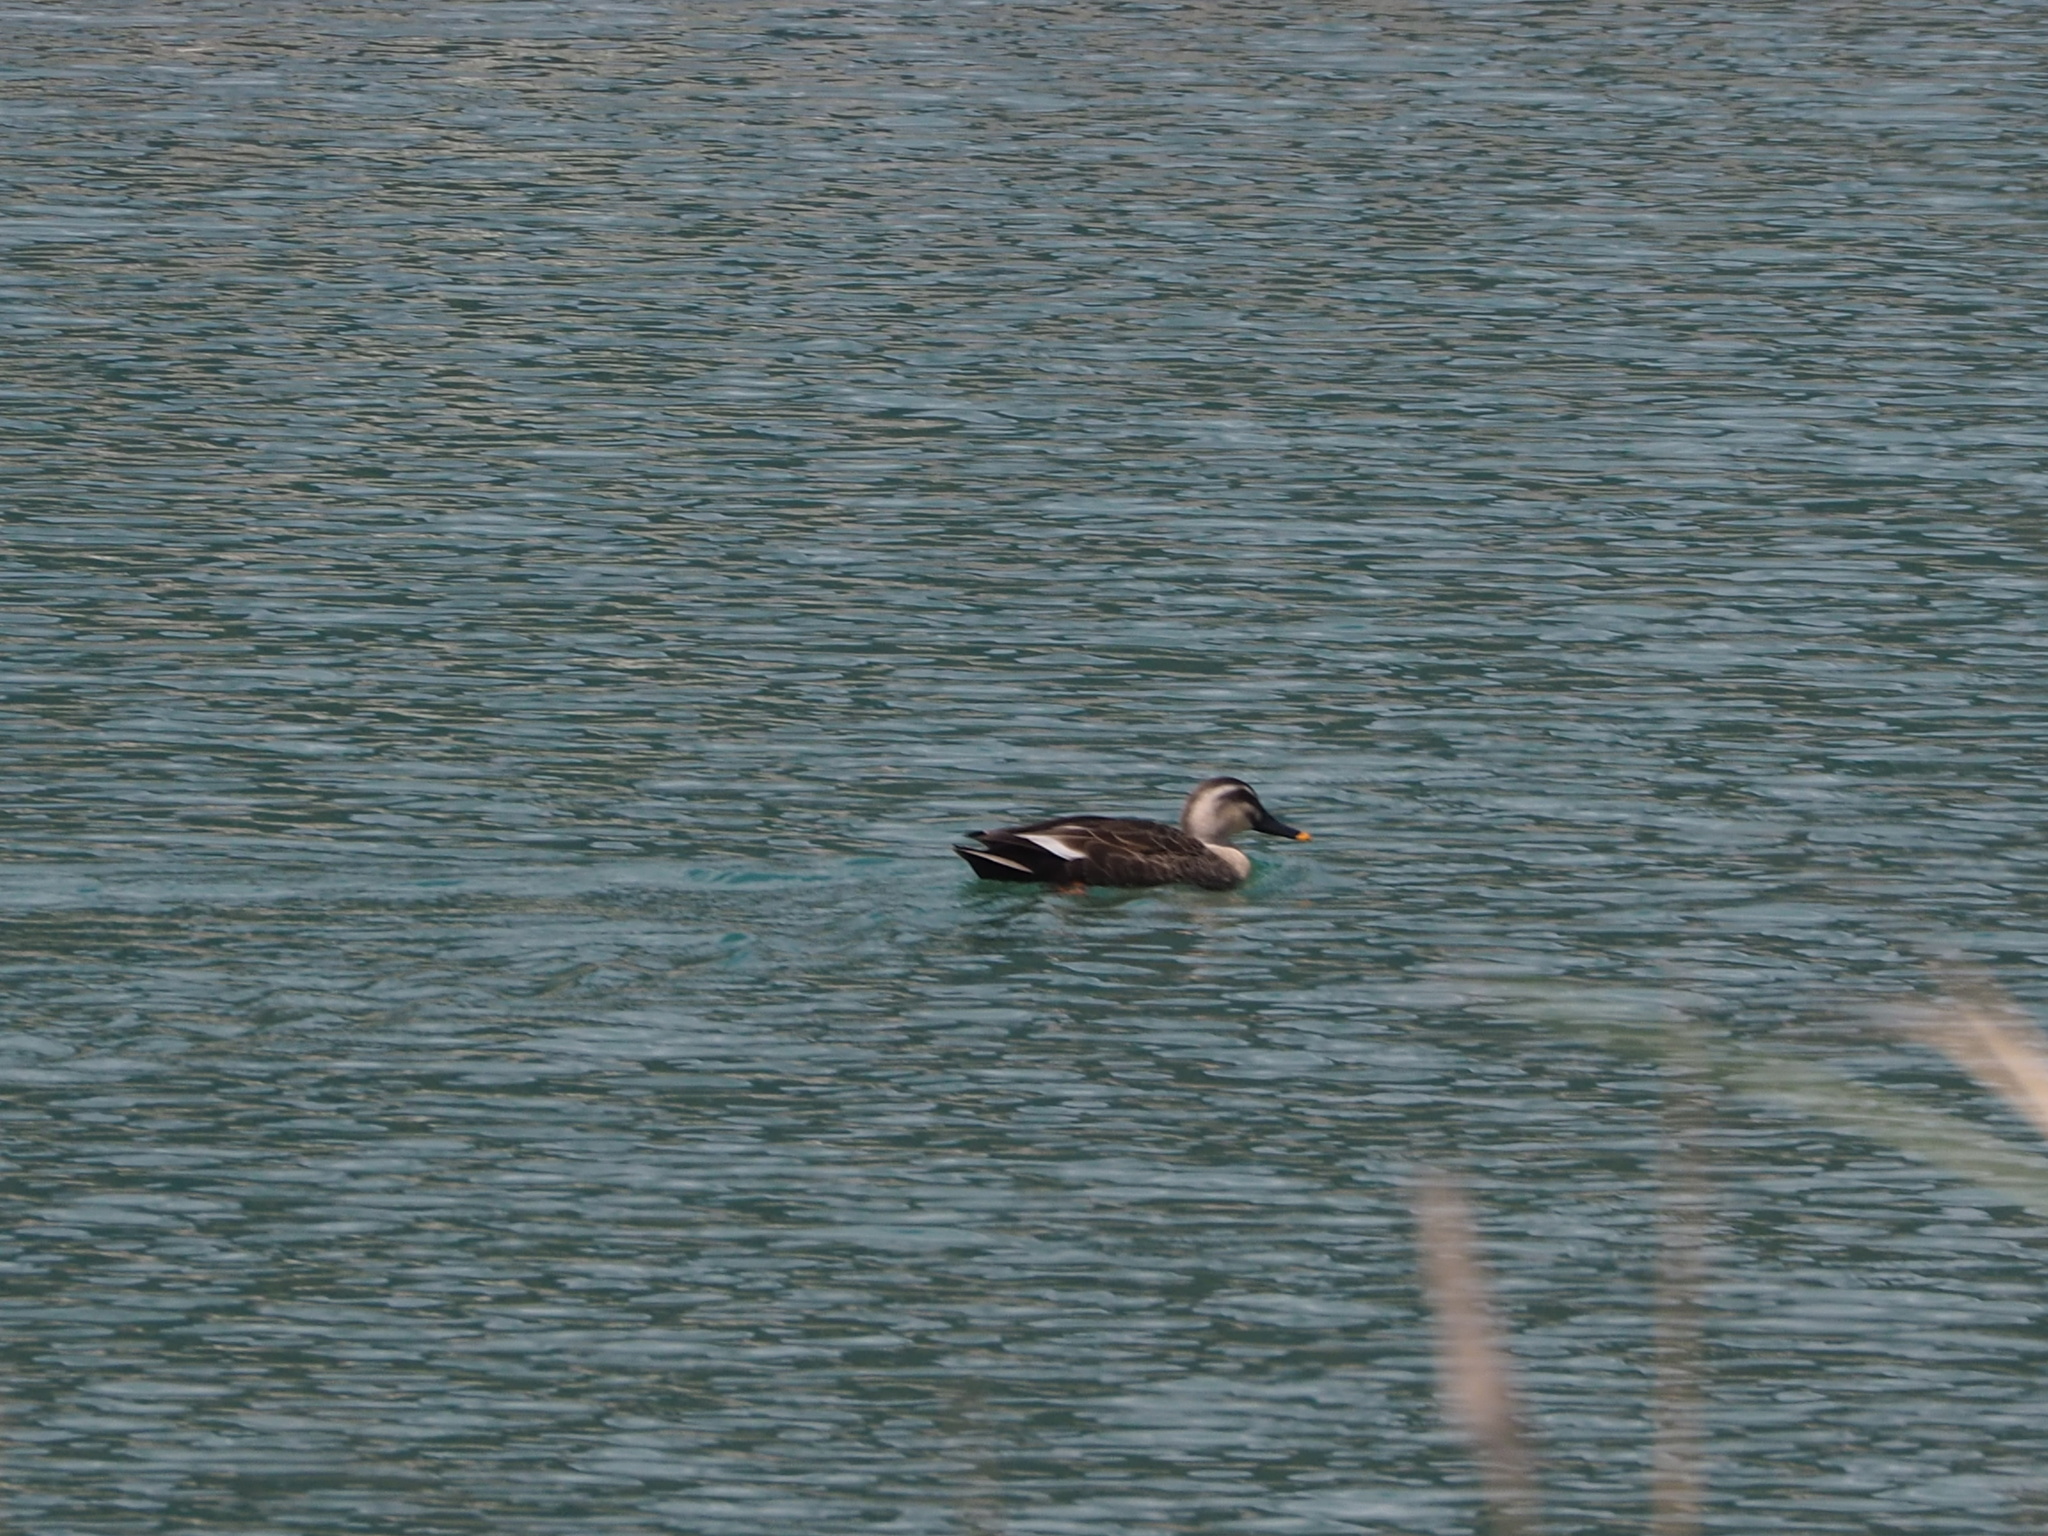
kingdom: Animalia
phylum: Chordata
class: Aves
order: Anseriformes
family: Anatidae
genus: Anas
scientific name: Anas zonorhyncha
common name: Eastern spot-billed duck
